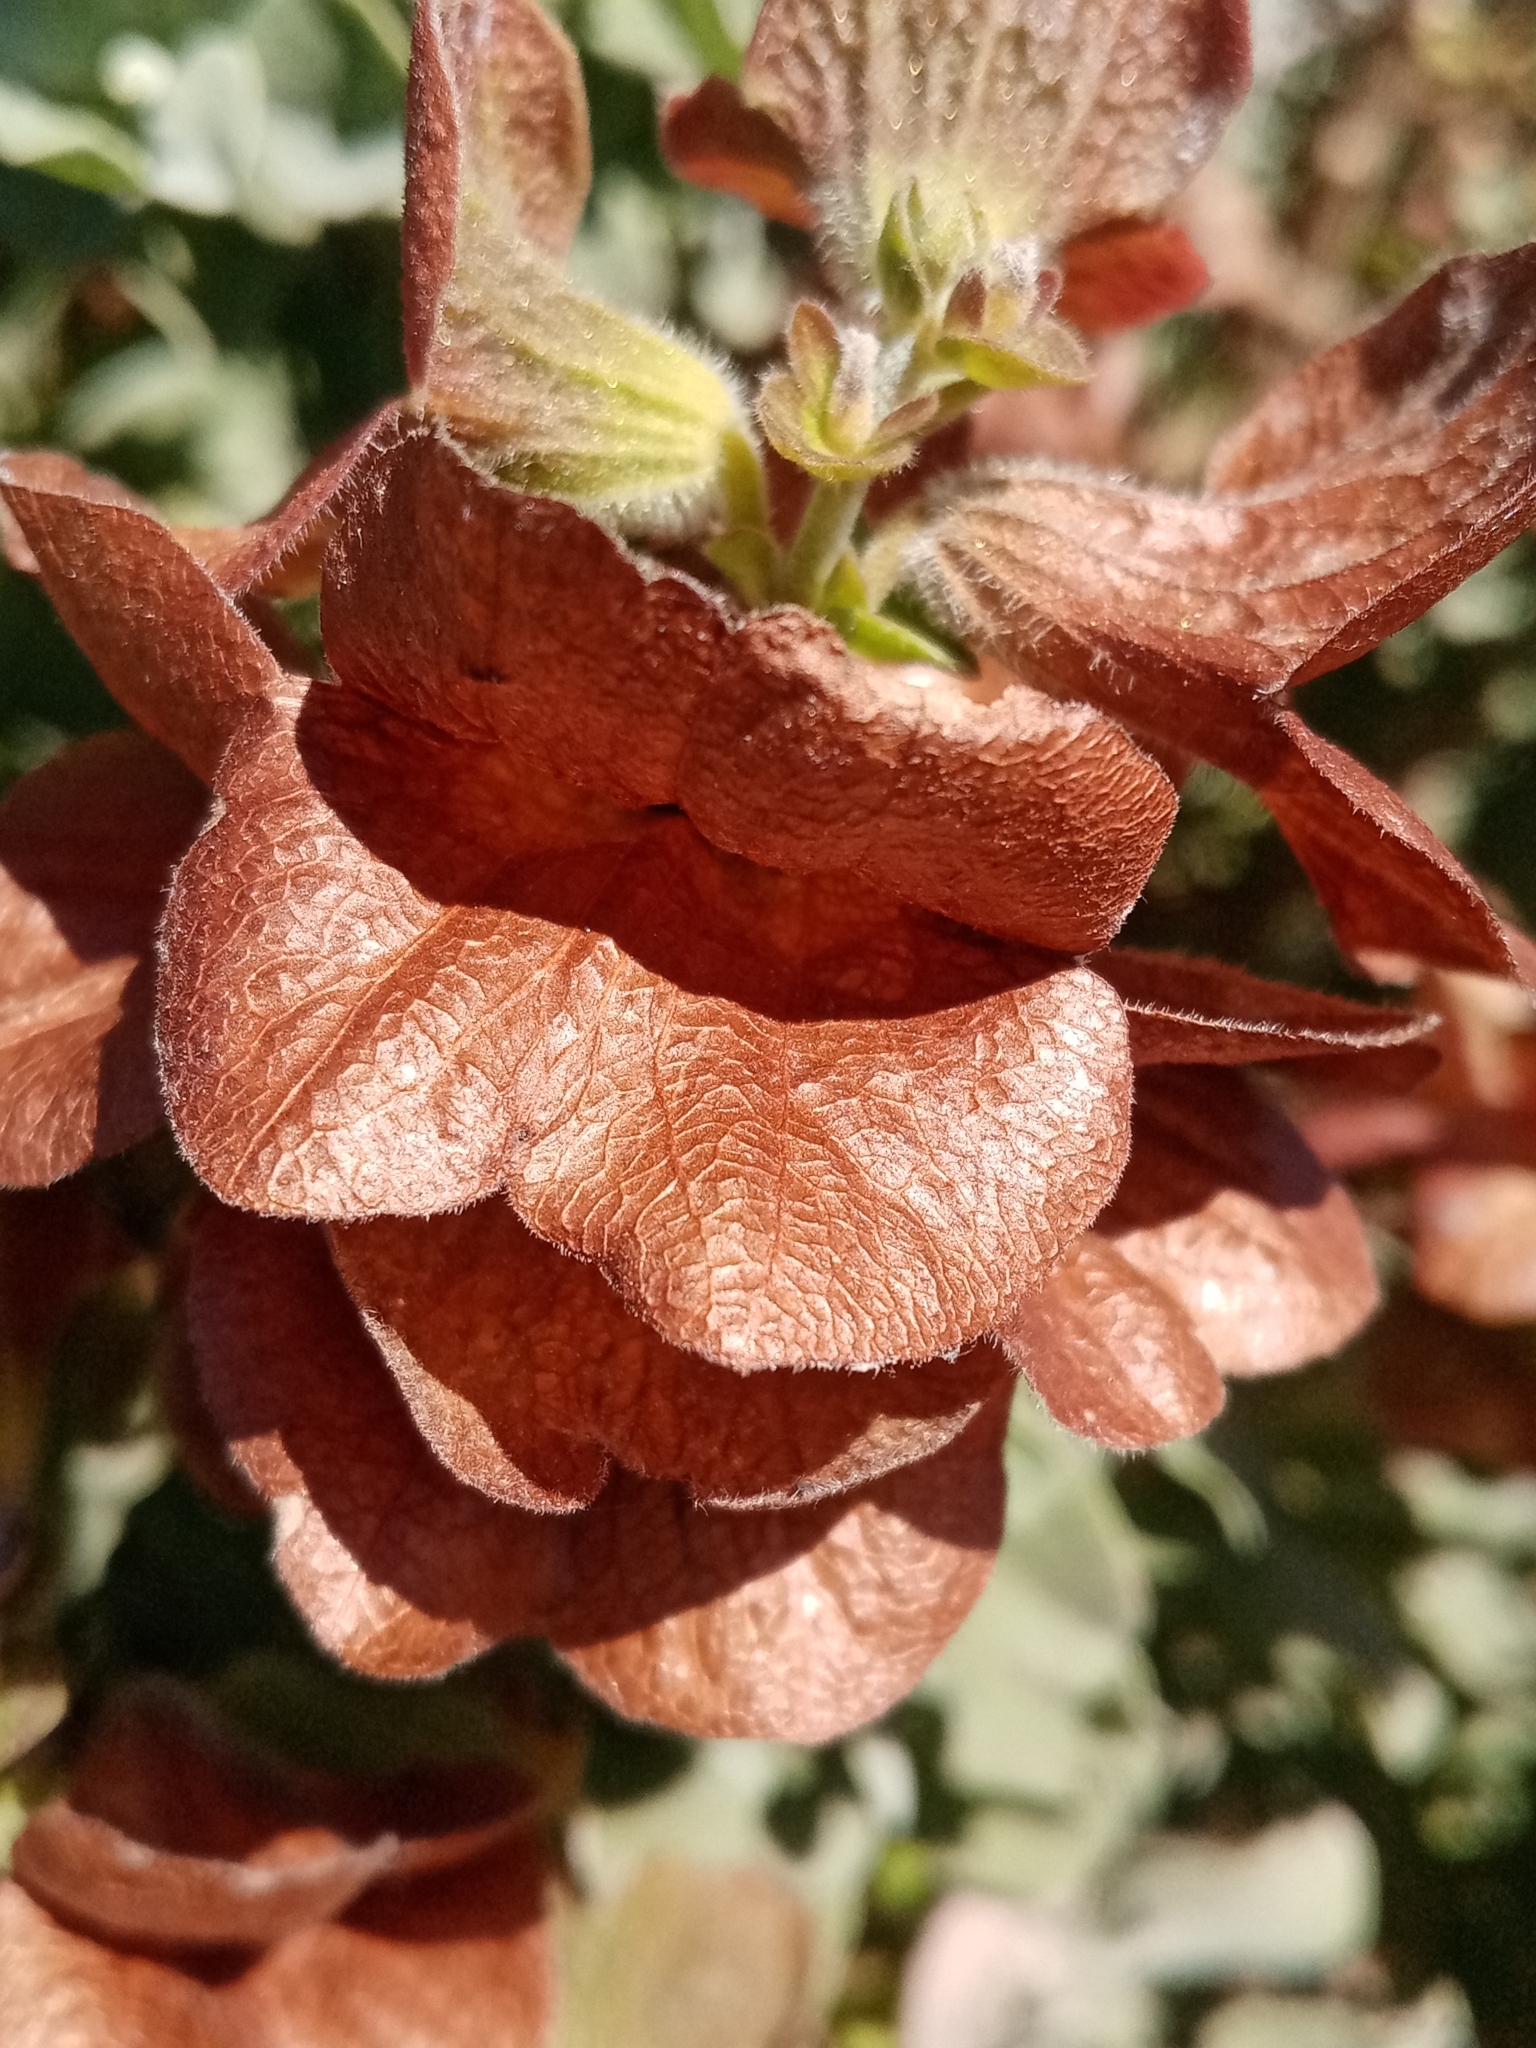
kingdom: Plantae
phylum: Tracheophyta
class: Magnoliopsida
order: Lamiales
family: Lamiaceae
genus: Salvia
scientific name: Salvia aurea
